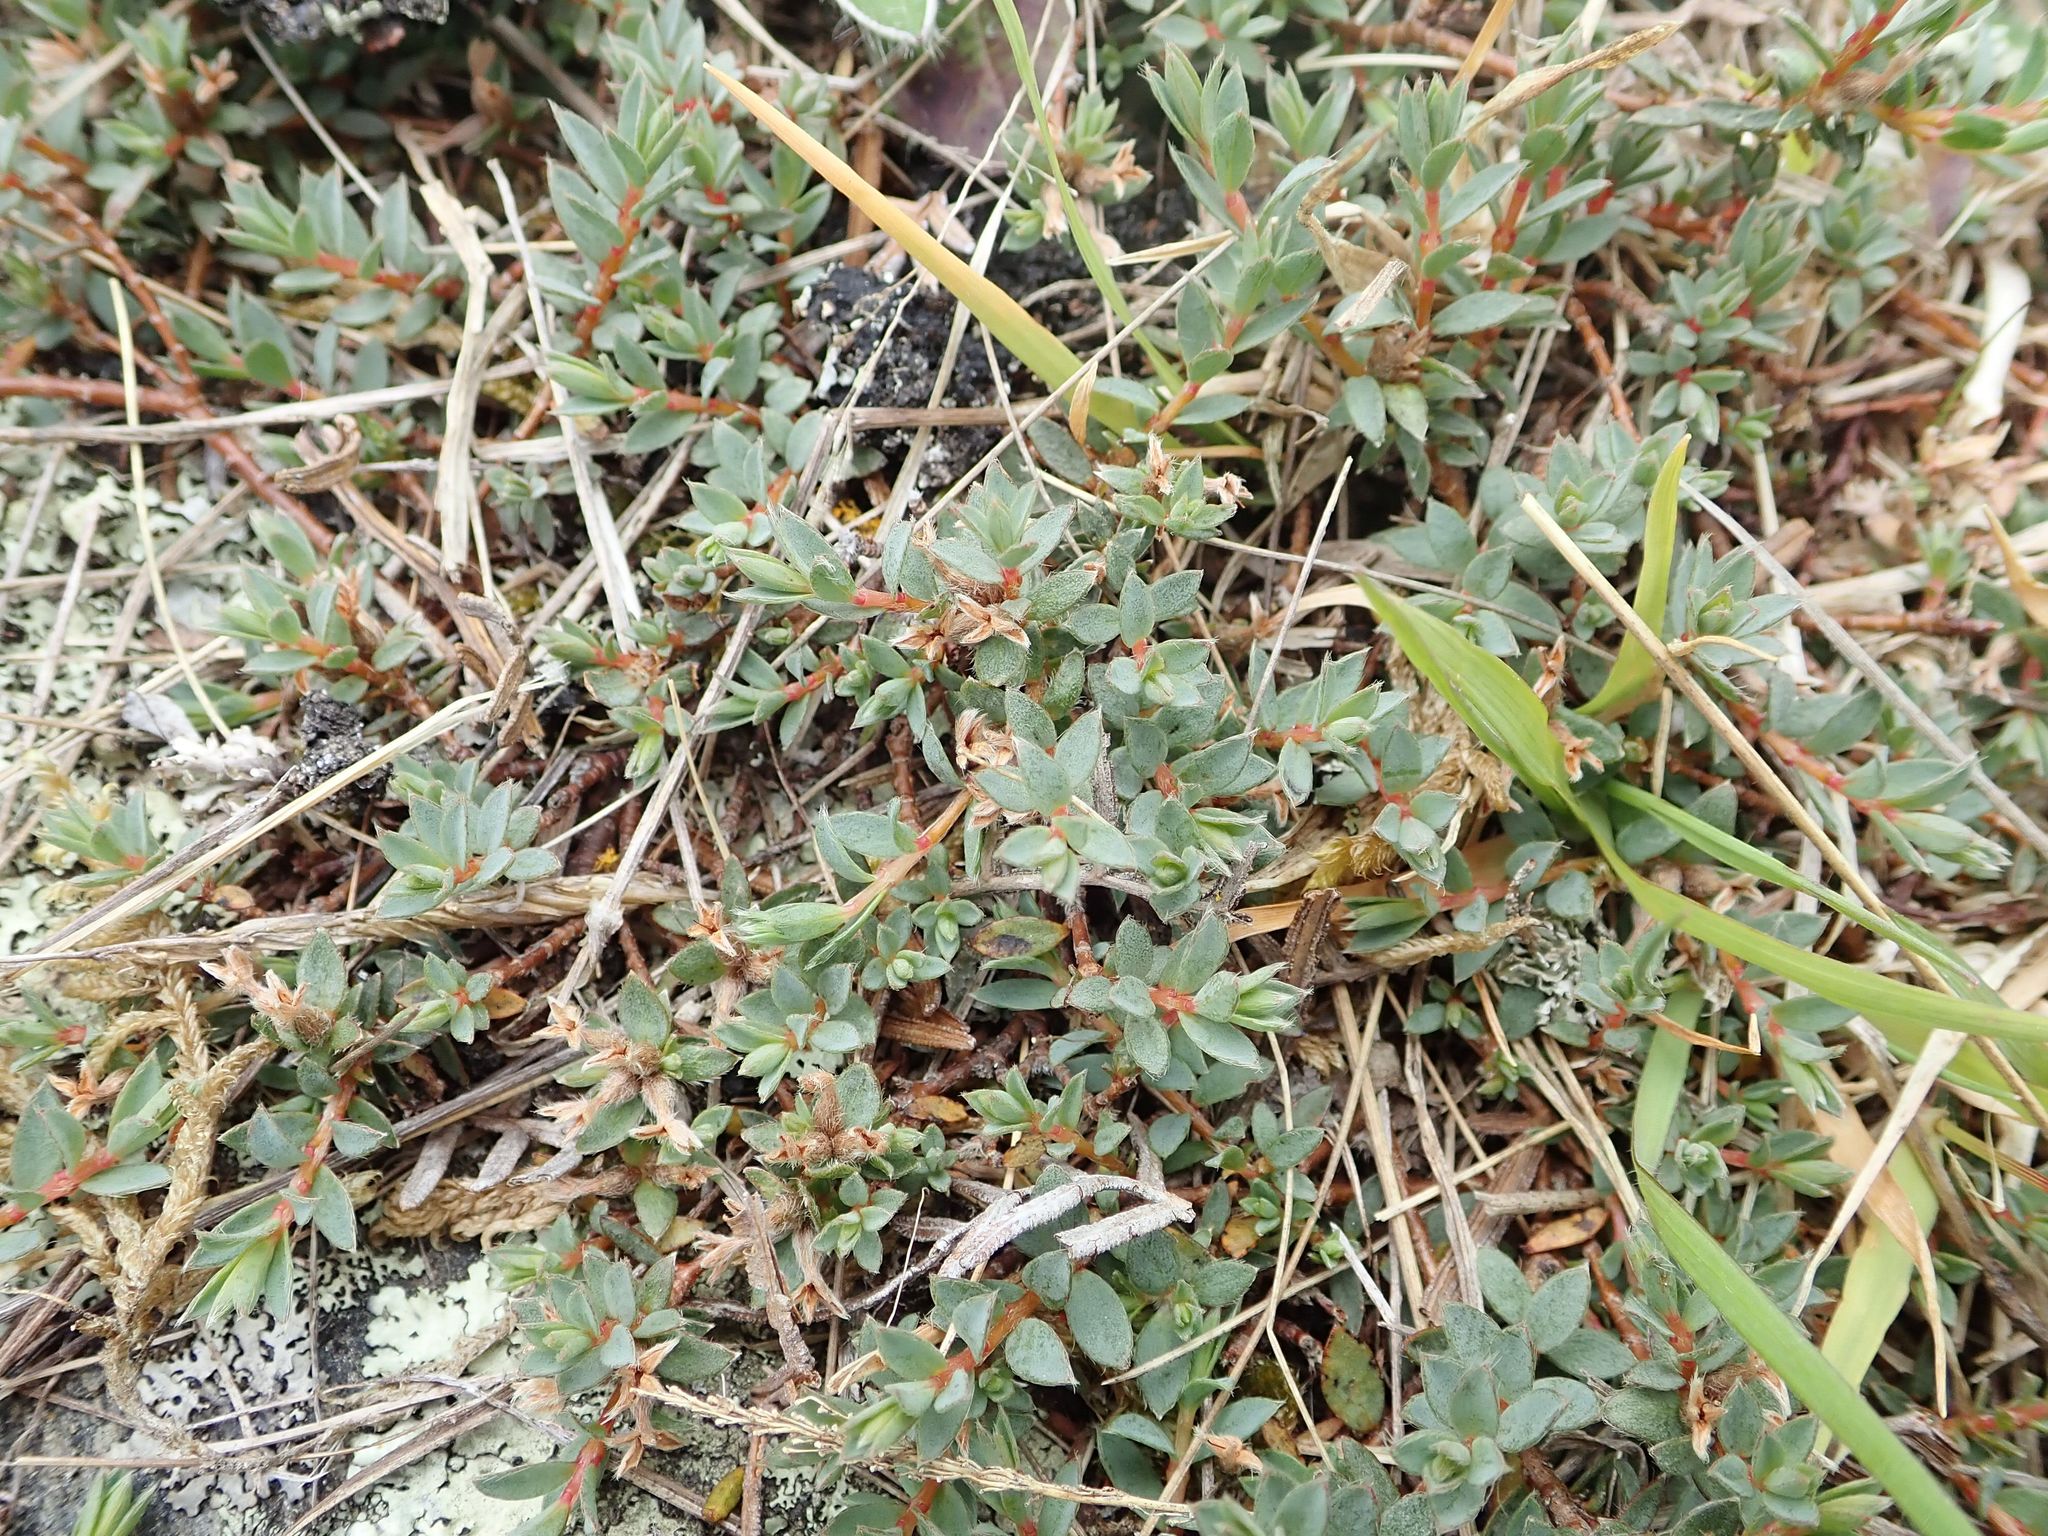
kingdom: Plantae
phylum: Tracheophyta
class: Magnoliopsida
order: Malvales
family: Thymelaeaceae
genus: Pimelea
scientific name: Pimelea oreophila
